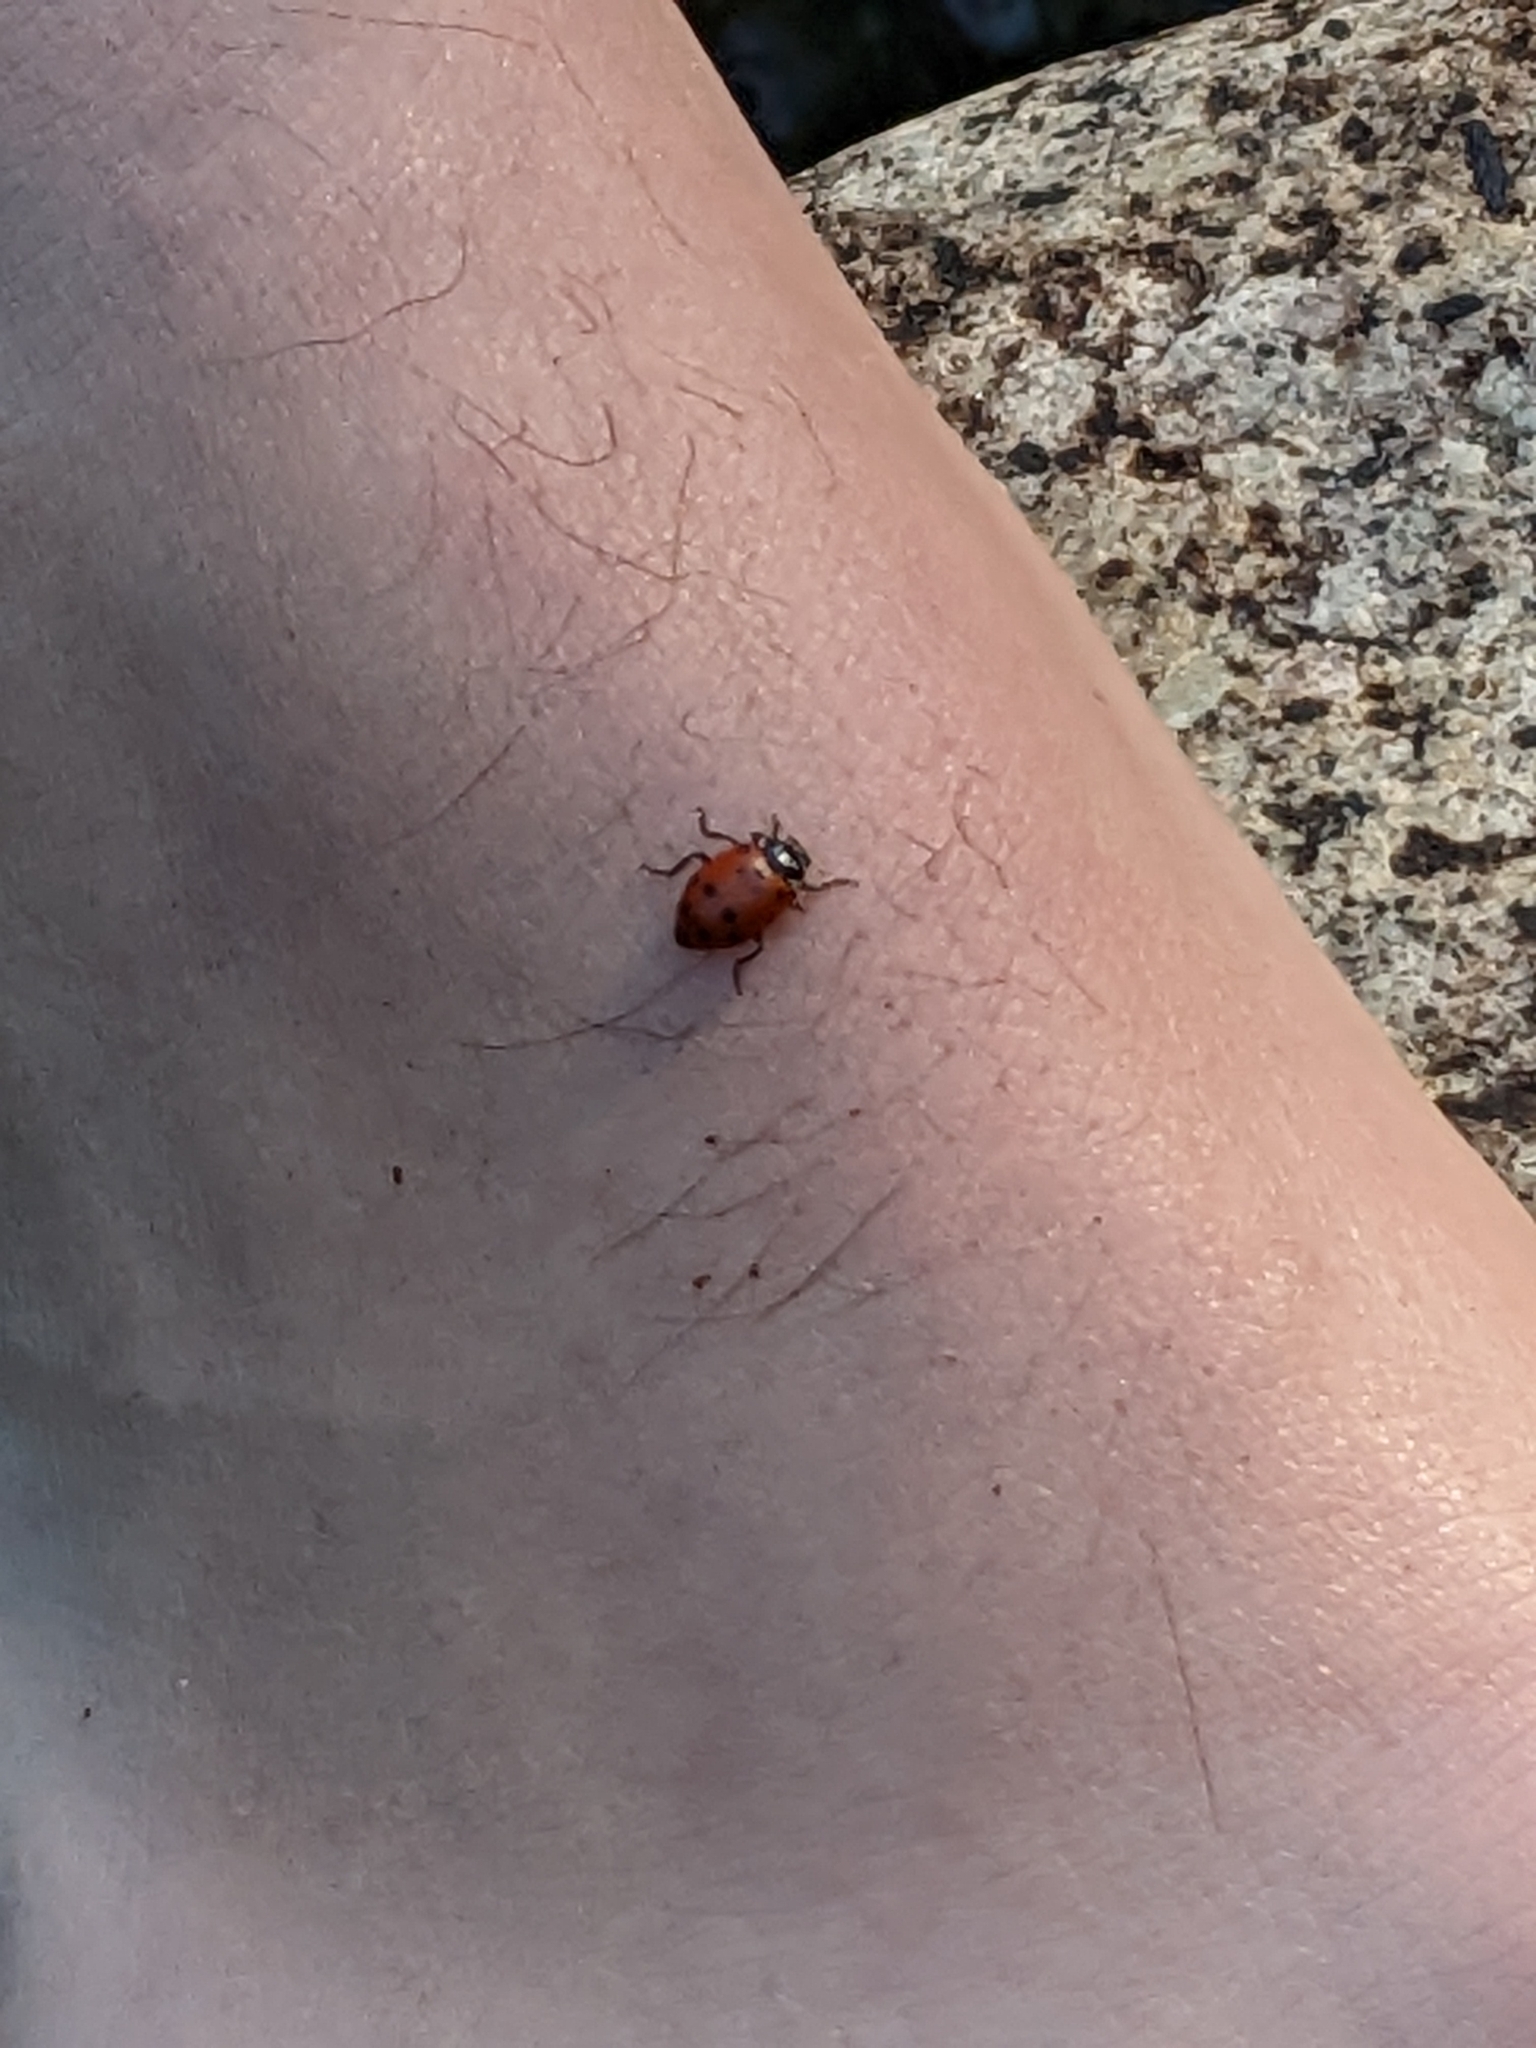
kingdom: Animalia
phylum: Arthropoda
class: Insecta
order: Coleoptera
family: Coccinellidae
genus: Hippodamia
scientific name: Hippodamia convergens
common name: Convergent lady beetle
